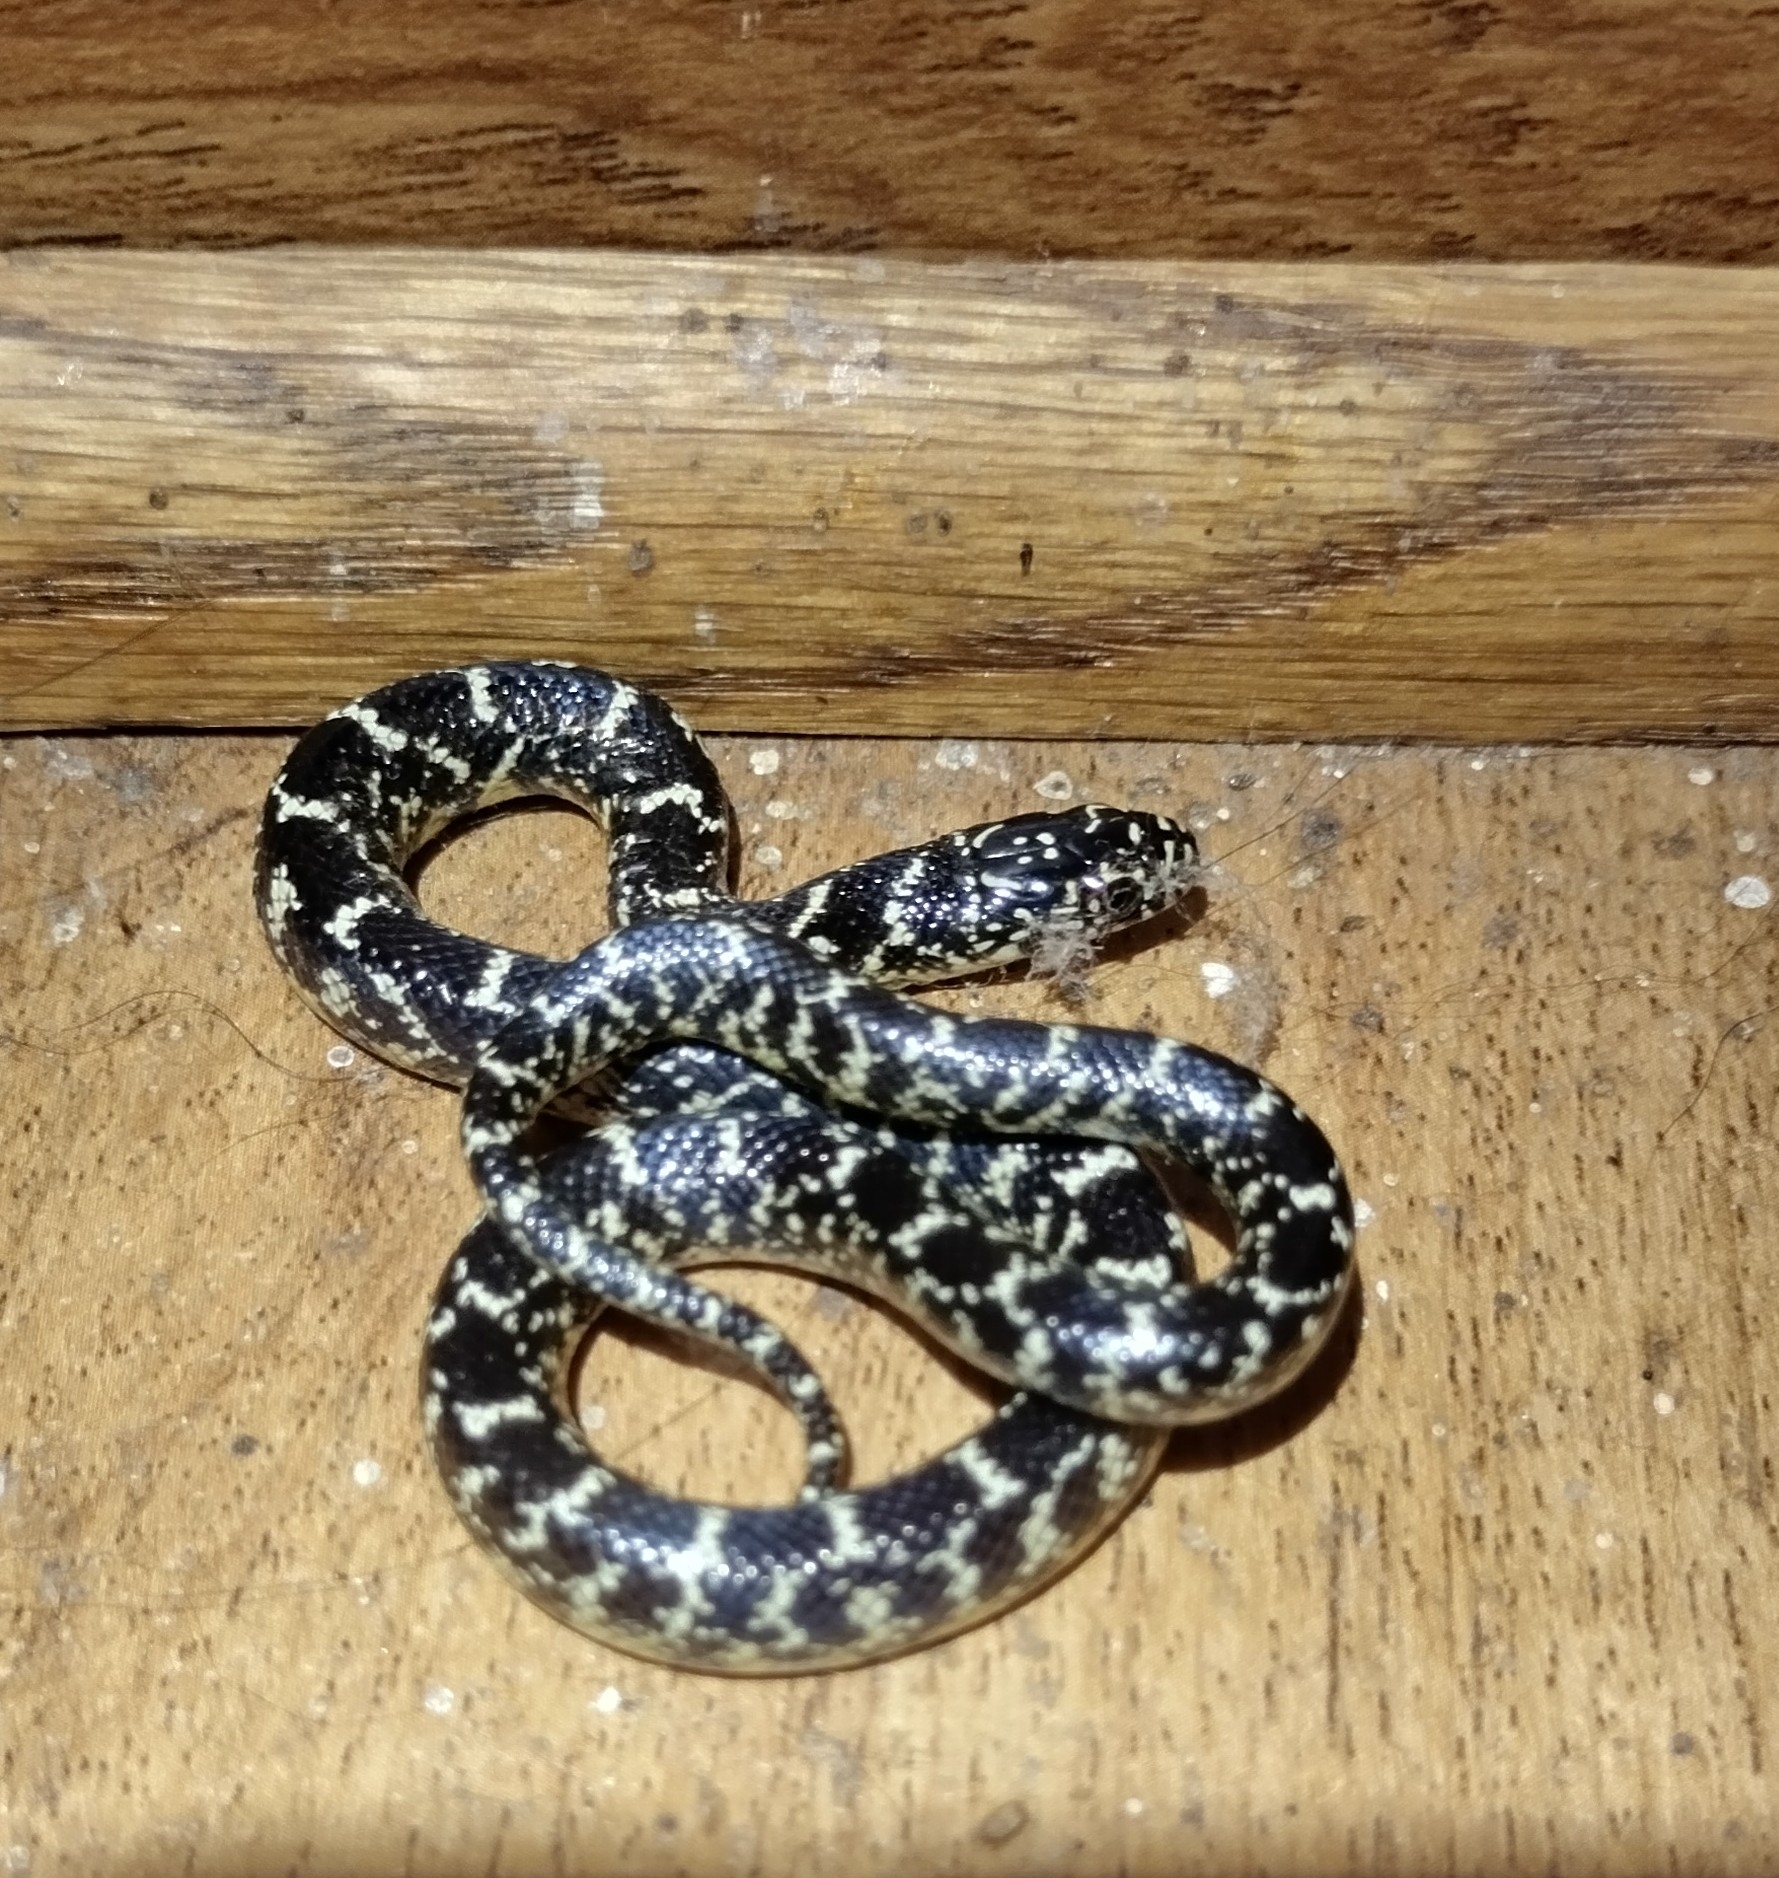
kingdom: Animalia
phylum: Chordata
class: Squamata
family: Colubridae
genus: Lampropeltis
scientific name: Lampropeltis holbrooki
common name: Speckled kingsnake
